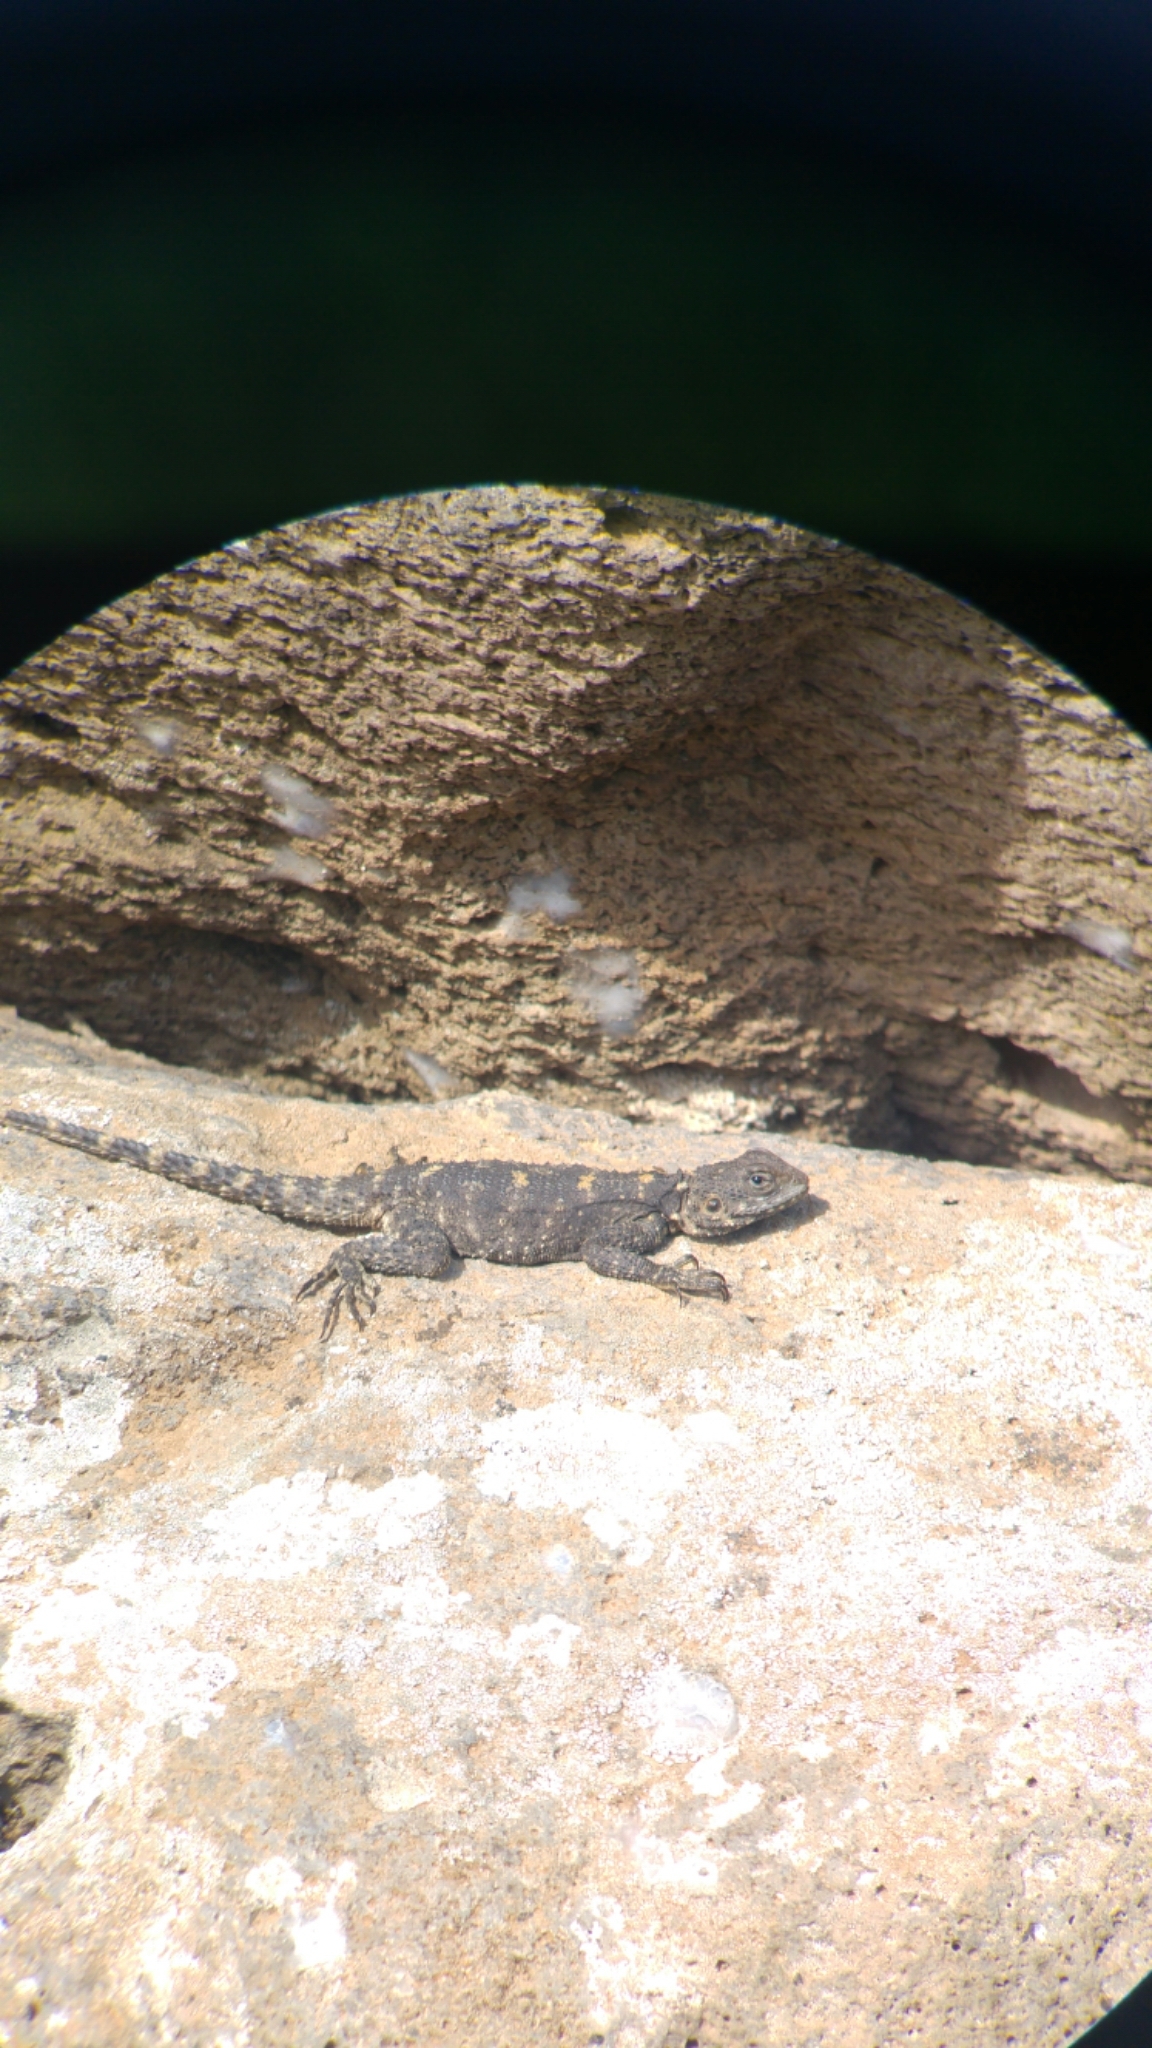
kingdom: Animalia
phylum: Chordata
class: Squamata
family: Agamidae
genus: Laudakia
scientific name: Laudakia vulgaris
